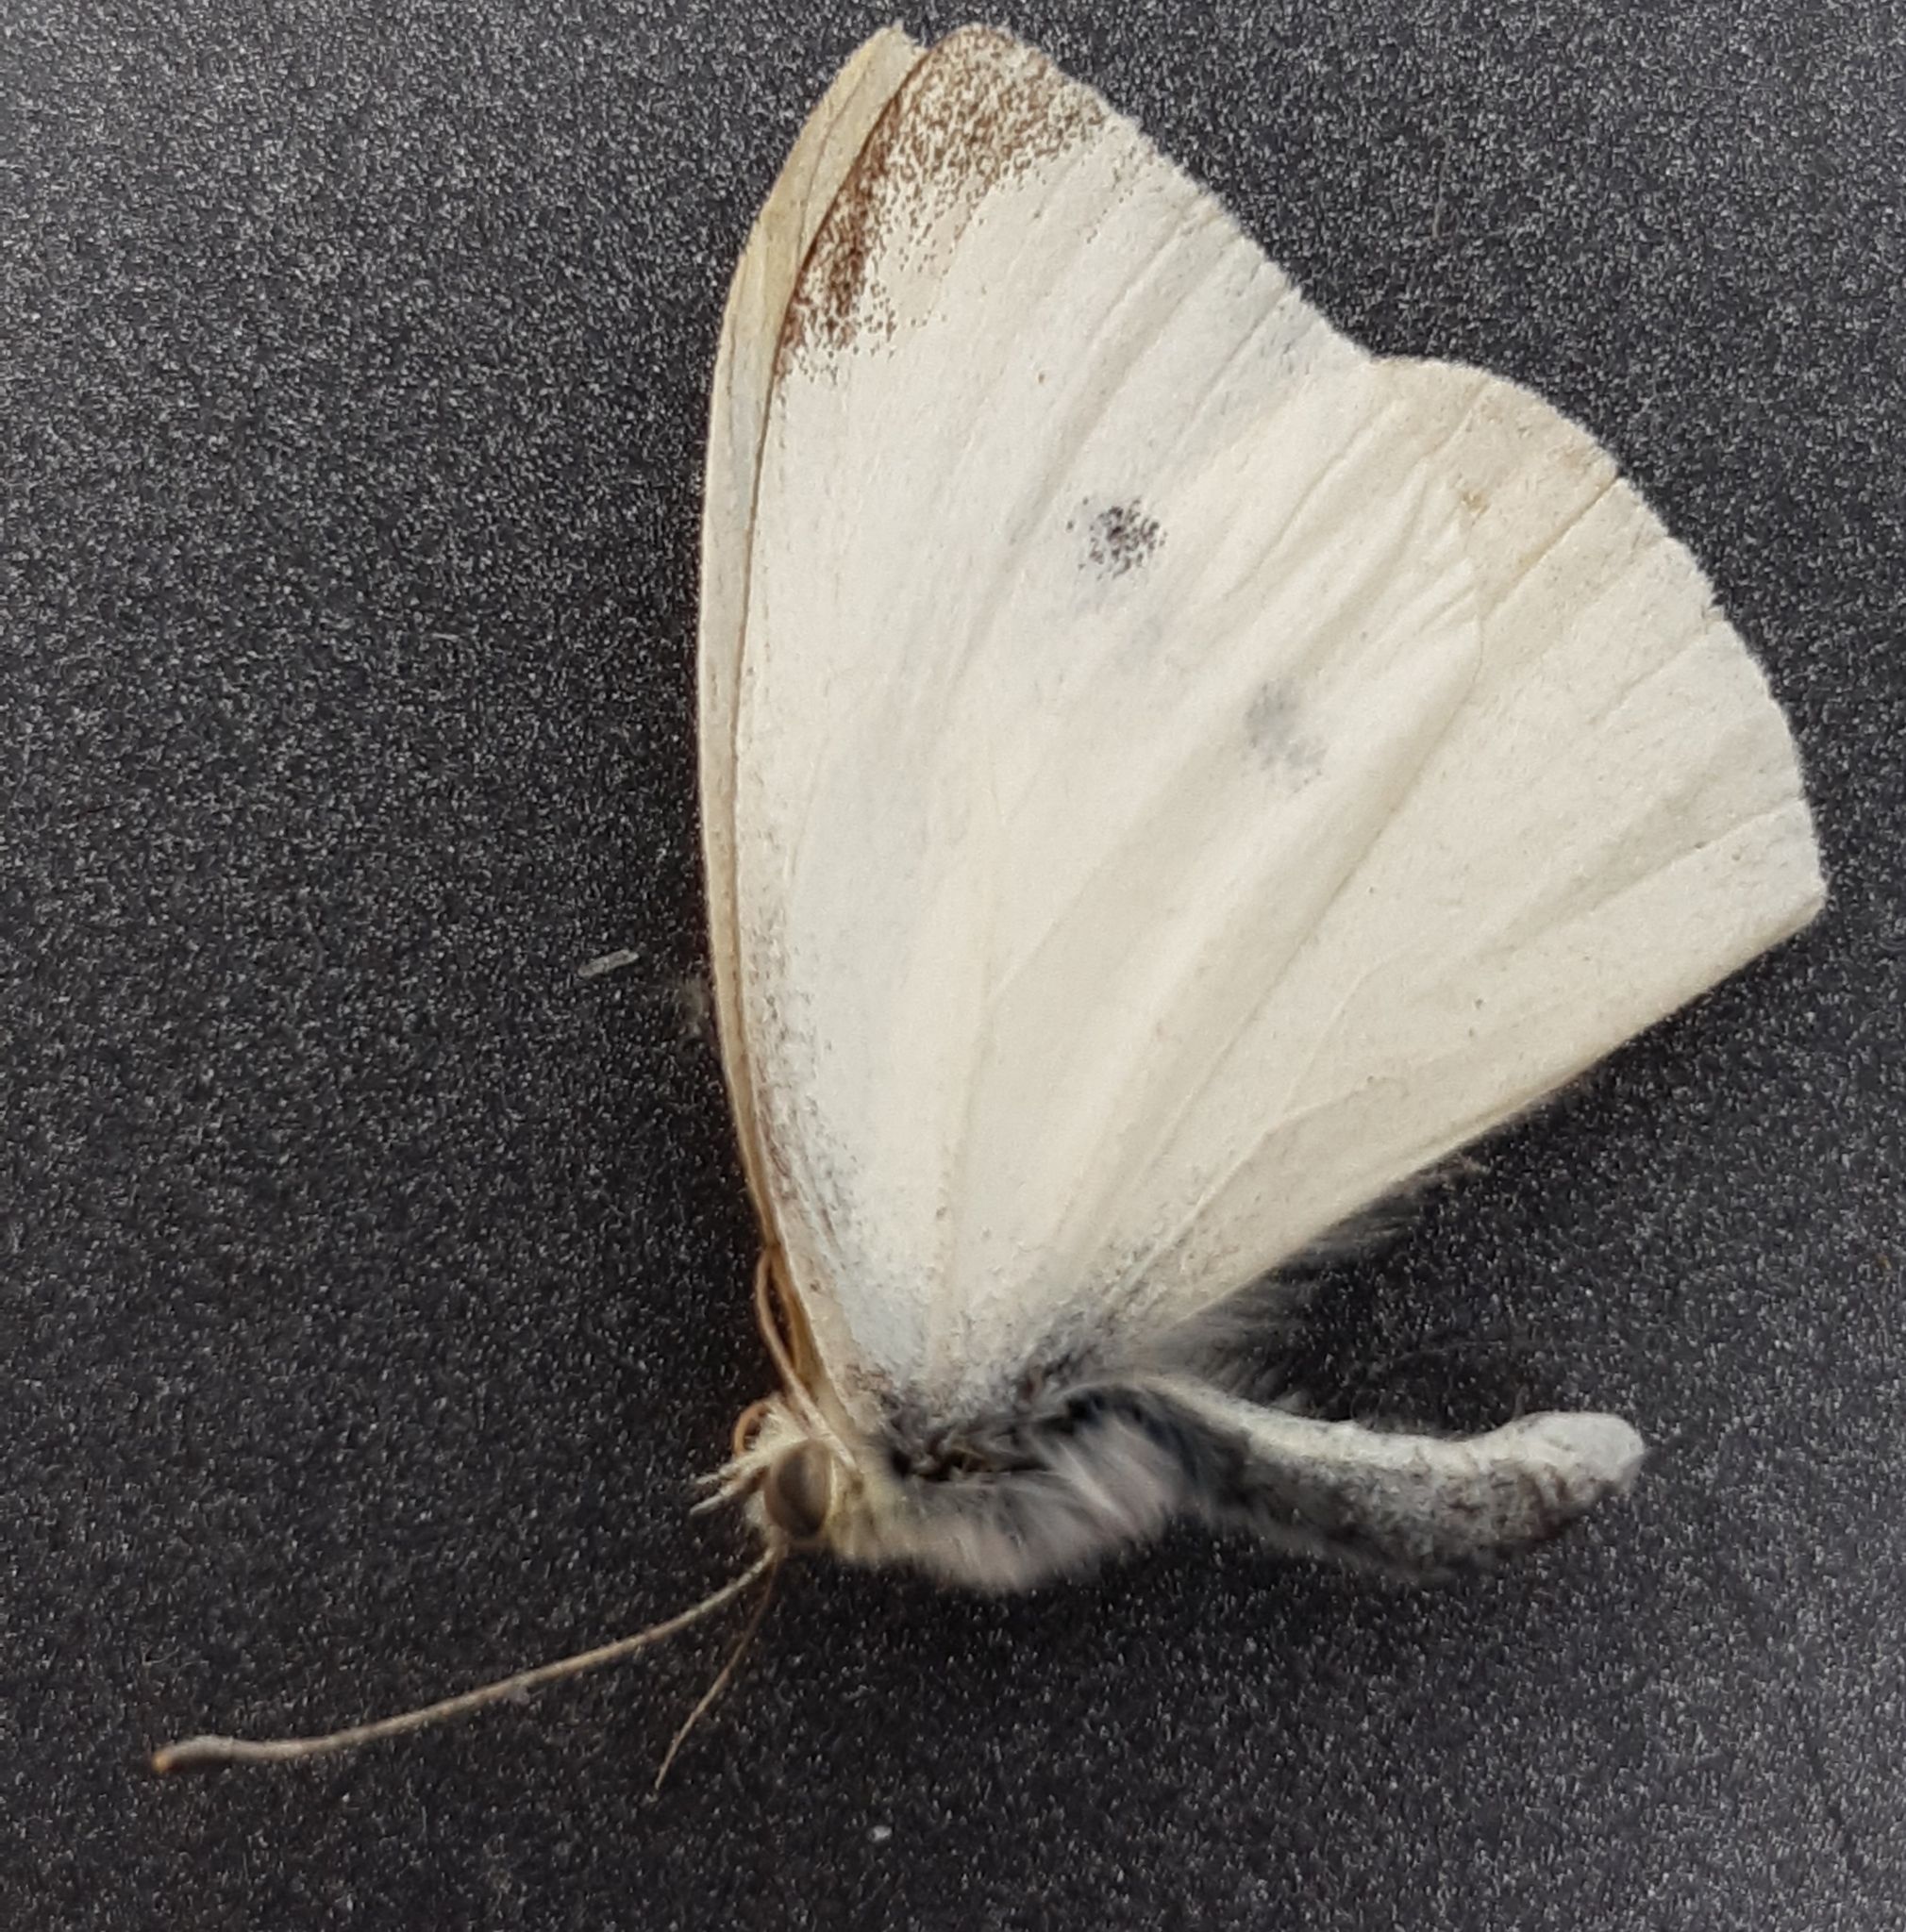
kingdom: Animalia
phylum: Arthropoda
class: Insecta
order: Lepidoptera
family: Pieridae
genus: Pieris
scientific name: Pieris rapae
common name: Small white
